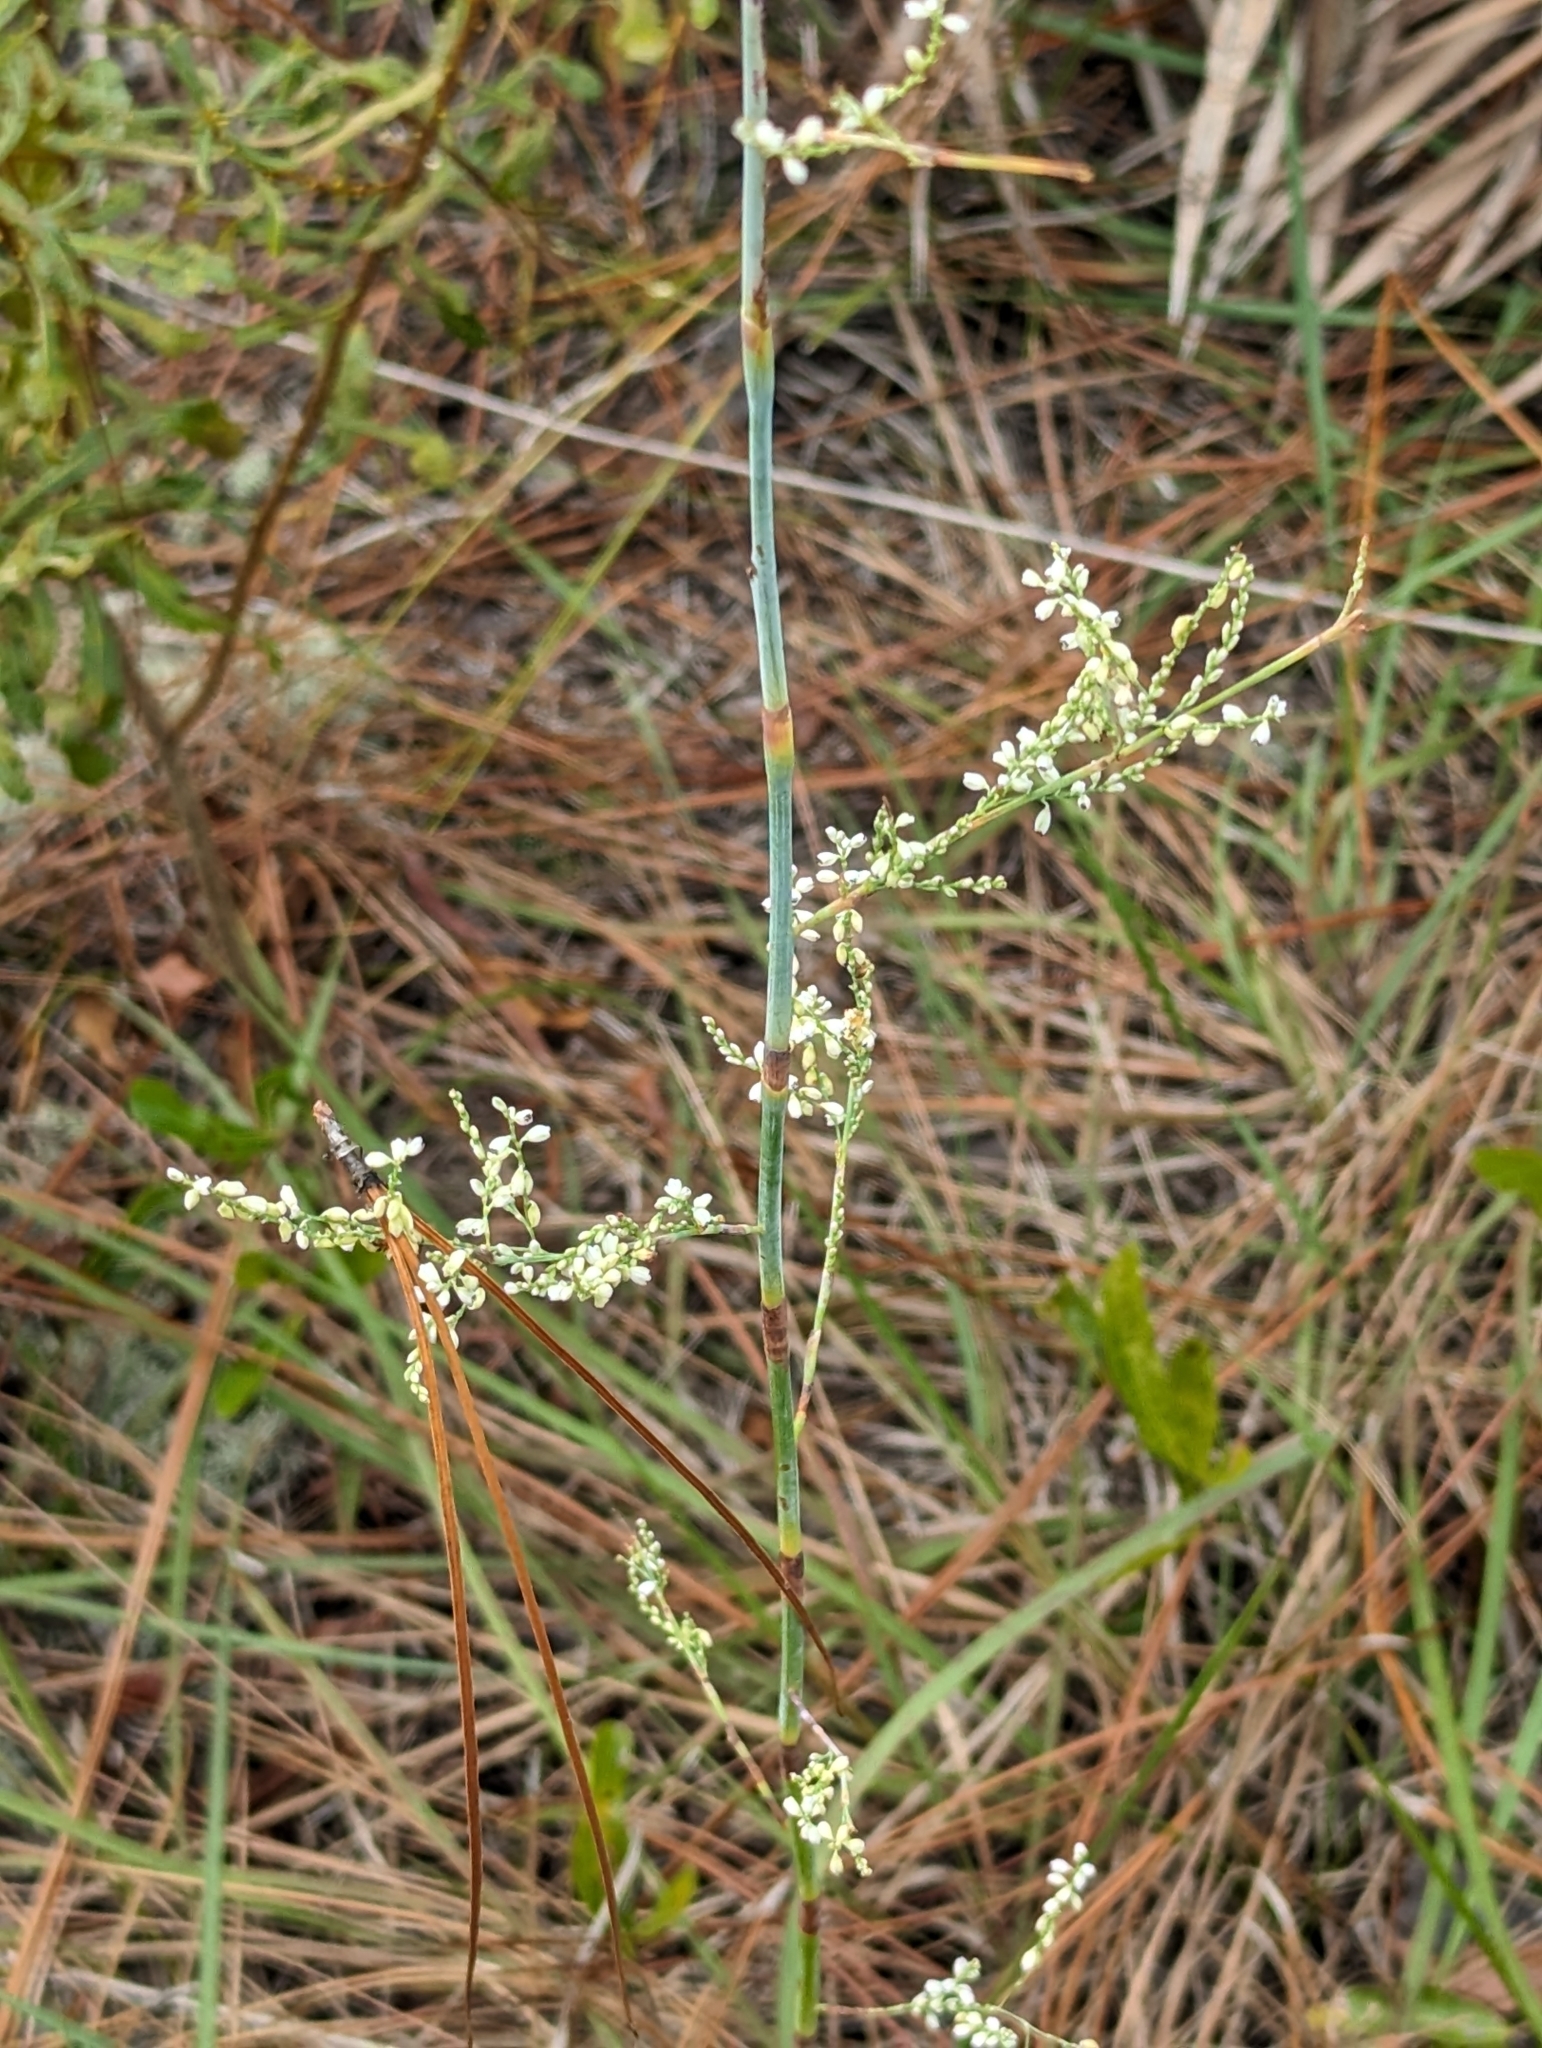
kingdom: Plantae
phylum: Tracheophyta
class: Magnoliopsida
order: Caryophyllales
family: Polygonaceae
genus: Polygonella
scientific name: Polygonella gracilis
